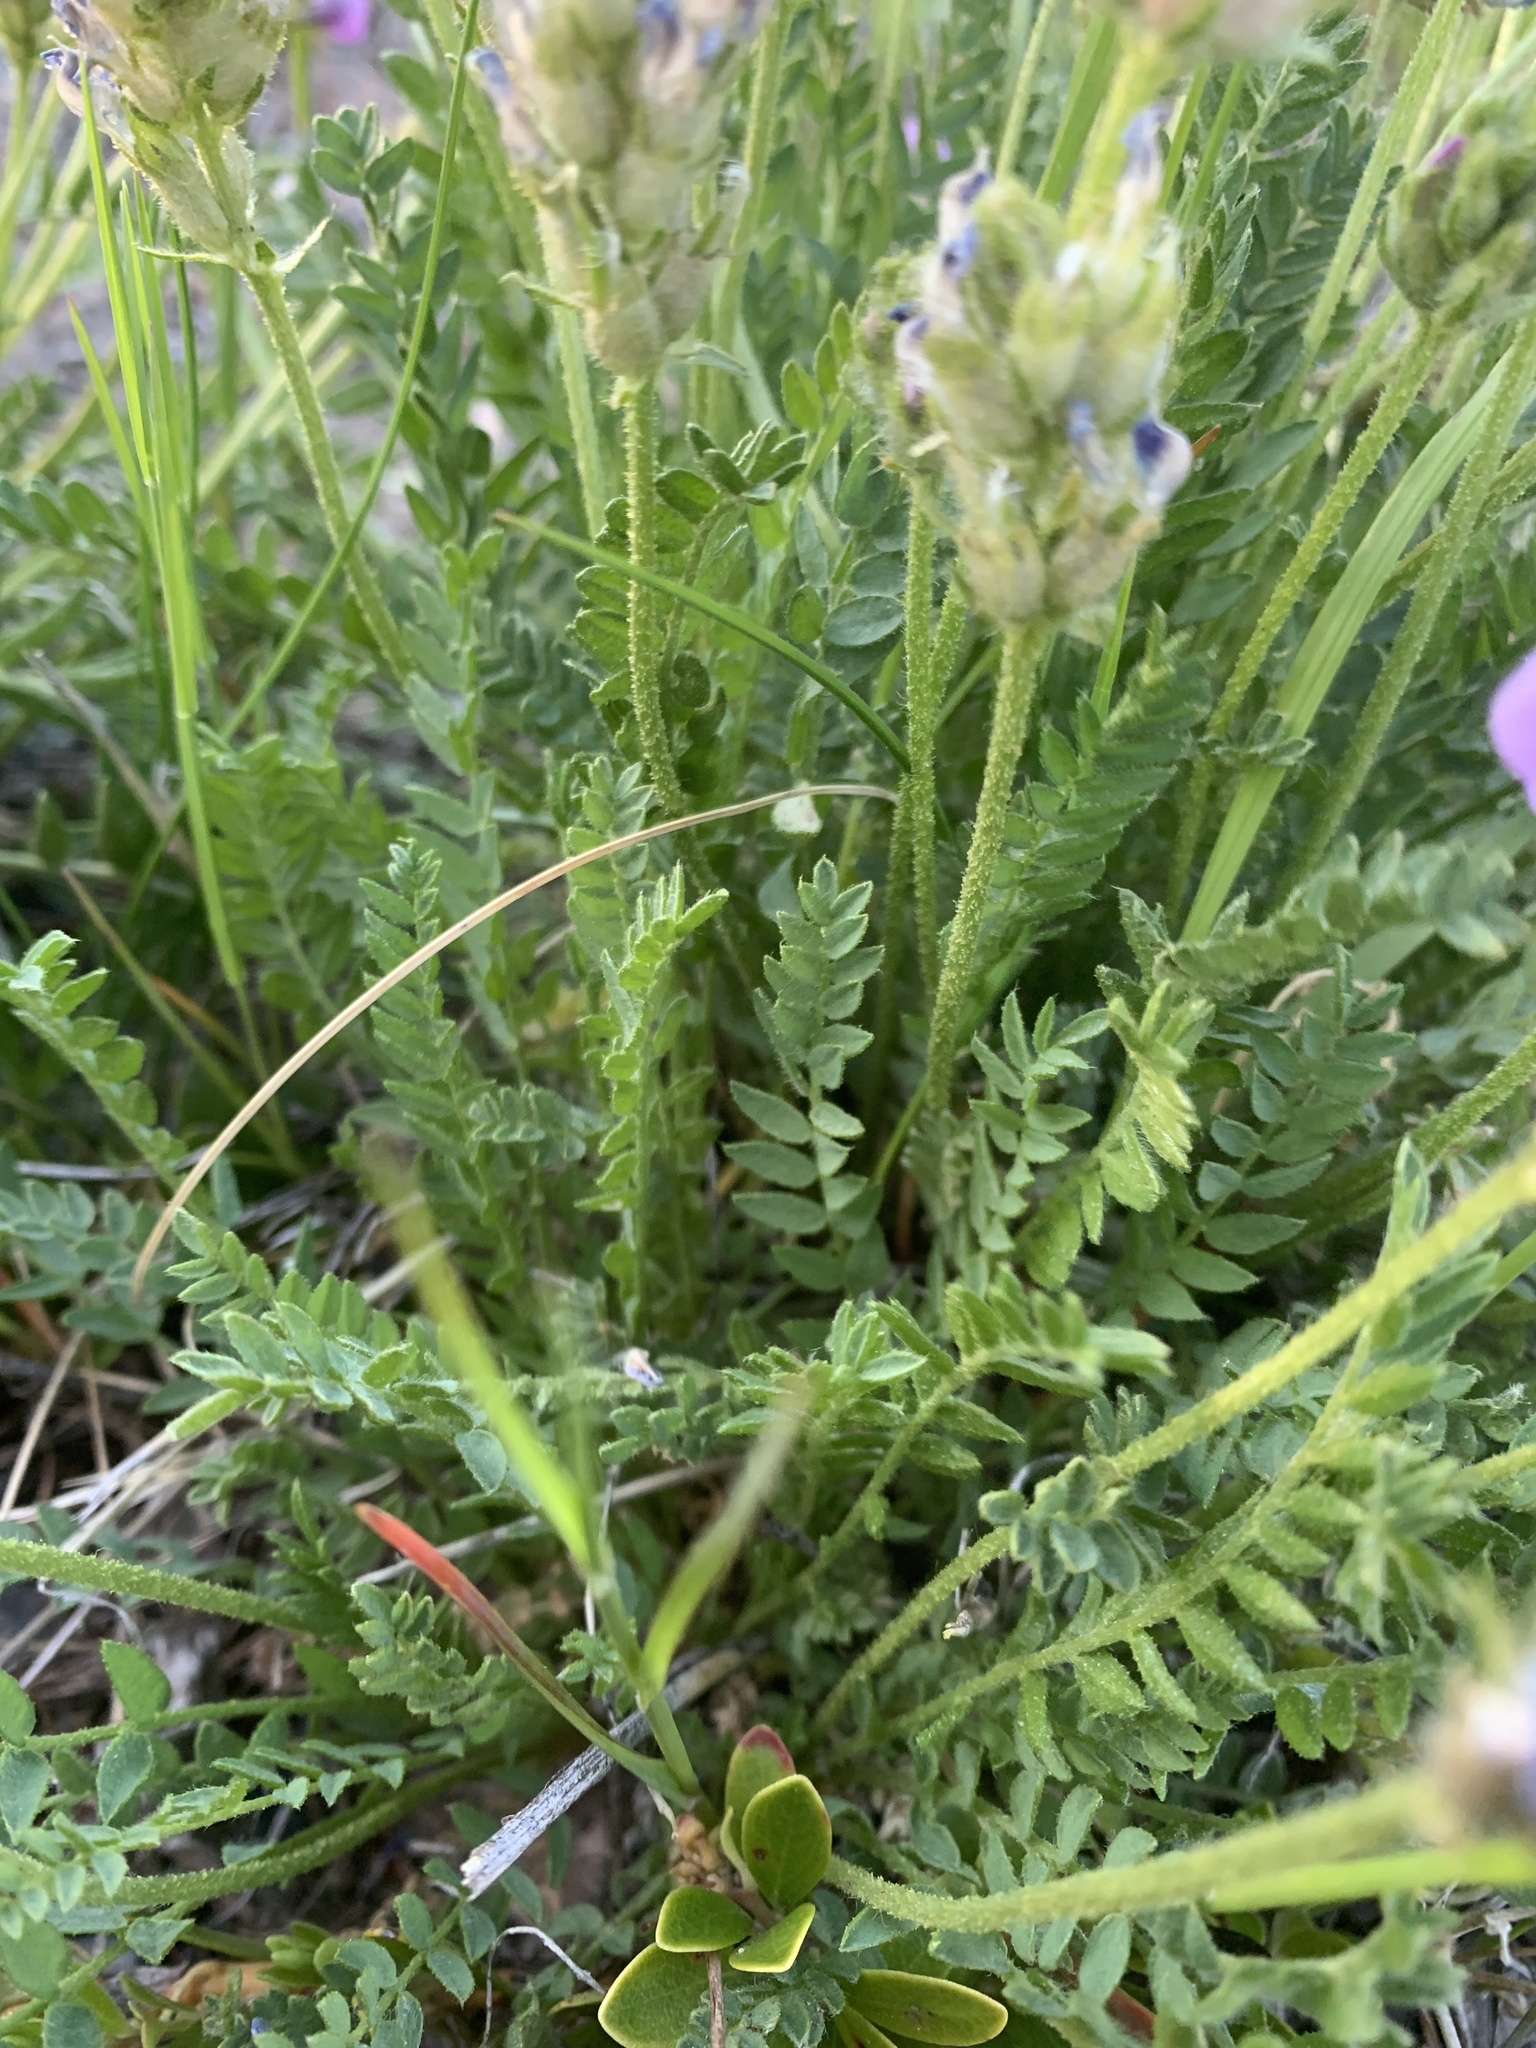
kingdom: Plantae
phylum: Tracheophyta
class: Magnoliopsida
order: Fabales
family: Fabaceae
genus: Oxytropis
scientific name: Oxytropis borealis
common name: Boreal locoweed
